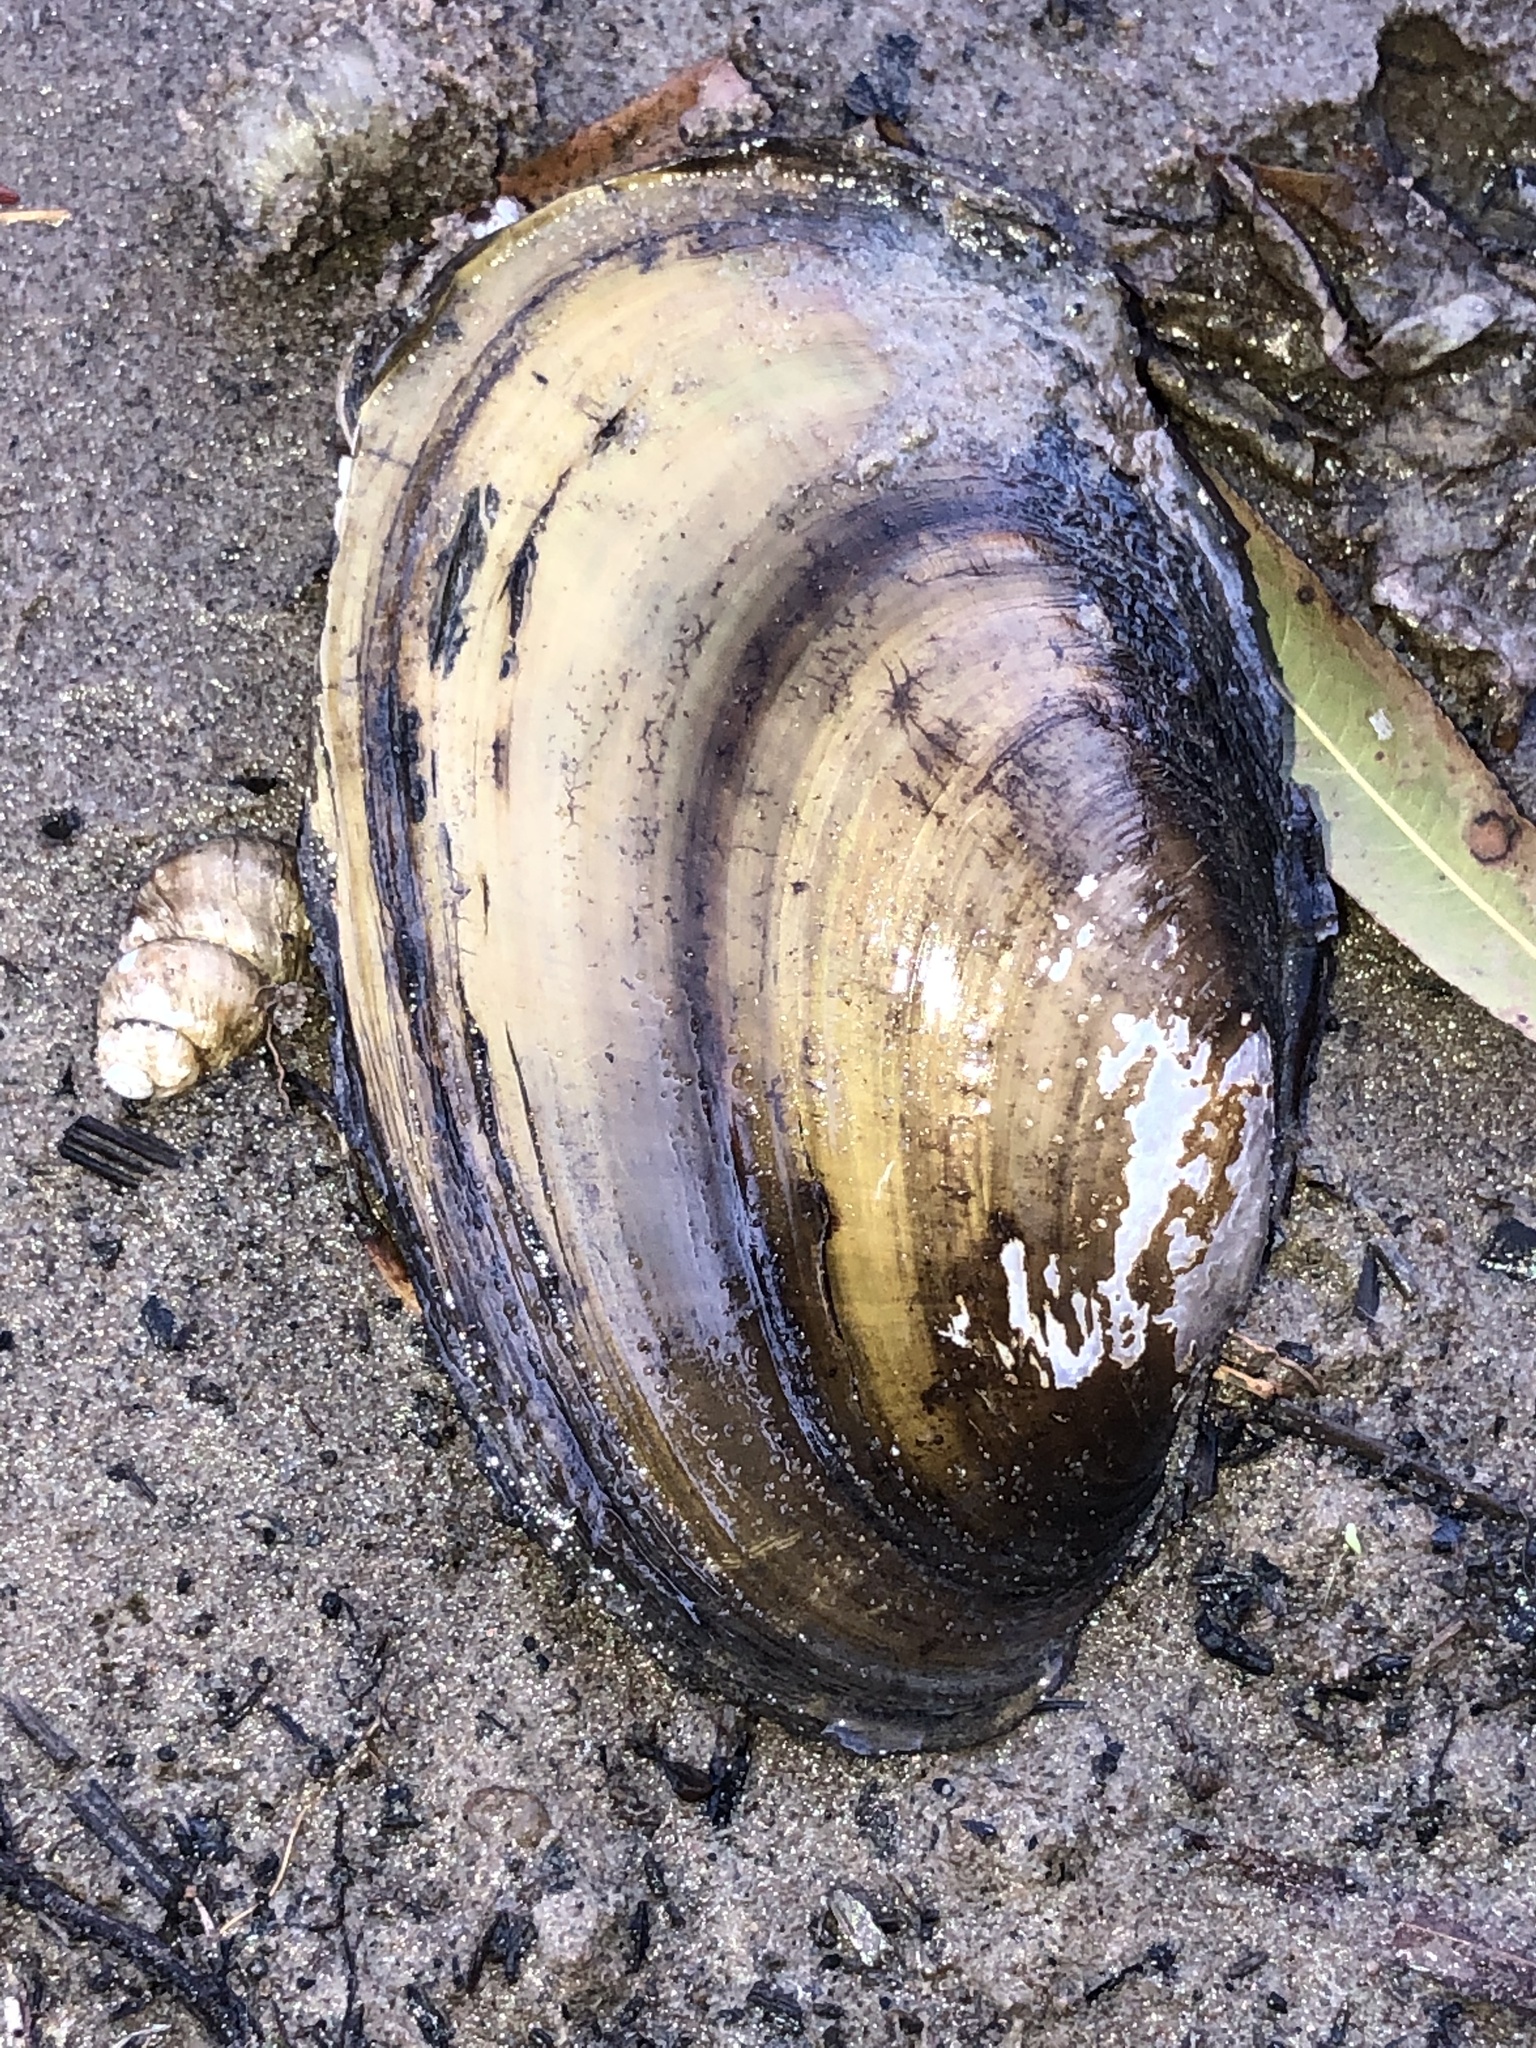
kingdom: Animalia
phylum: Mollusca
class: Bivalvia
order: Unionida
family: Unionidae
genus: Potamilus
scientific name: Potamilus fragilis
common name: Fragile papershell
